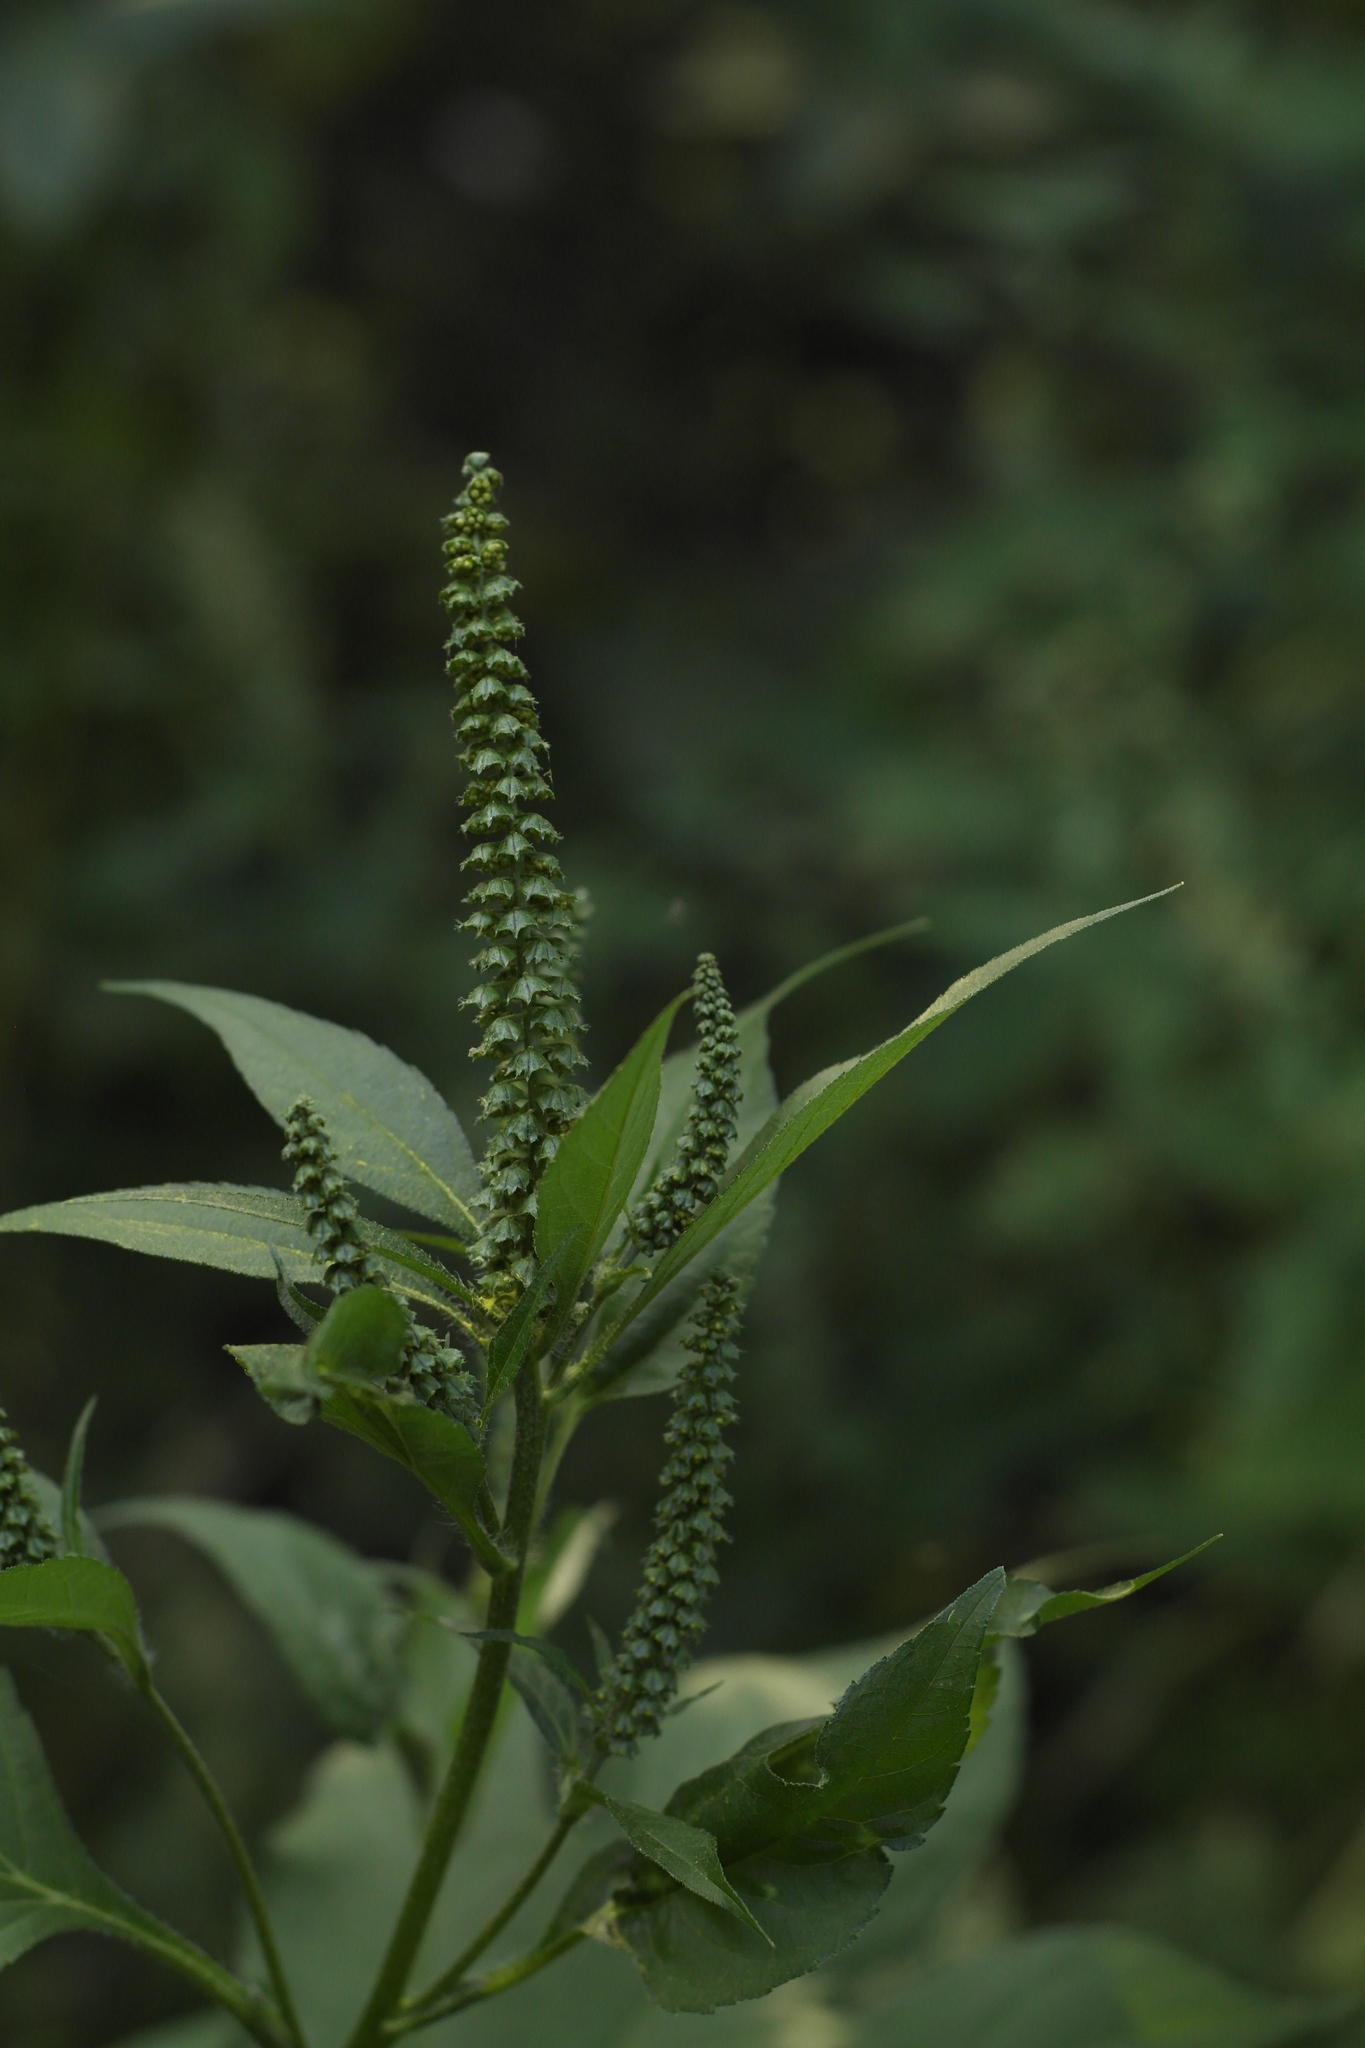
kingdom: Plantae
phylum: Tracheophyta
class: Magnoliopsida
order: Asterales
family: Asteraceae
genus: Ambrosia
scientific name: Ambrosia trifida
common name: Giant ragweed
